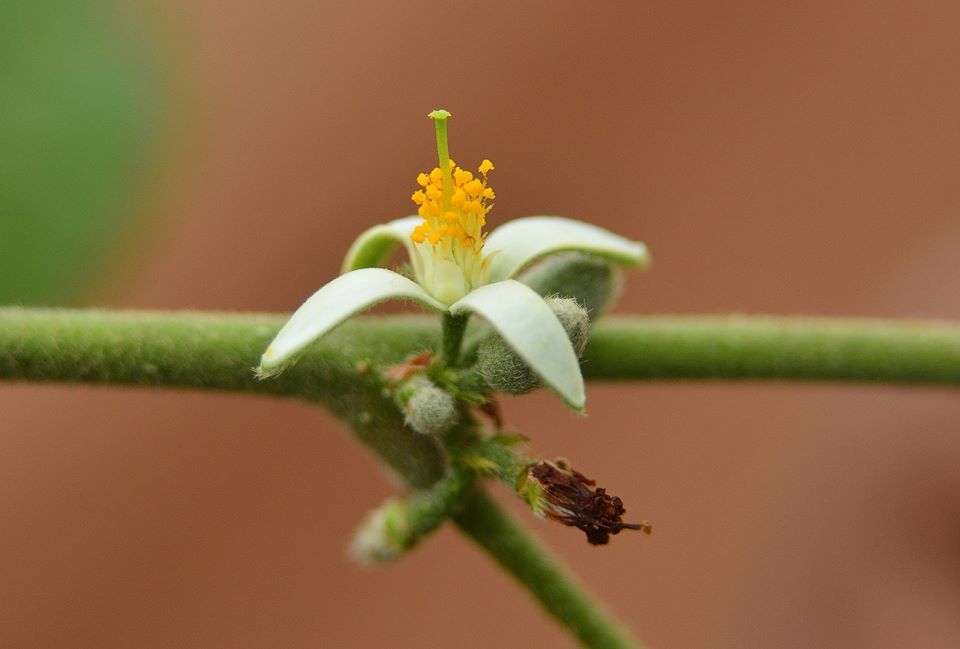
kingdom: Plantae
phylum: Tracheophyta
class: Magnoliopsida
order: Malvales
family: Malvaceae
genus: Grewia
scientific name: Grewia abutilifolia
